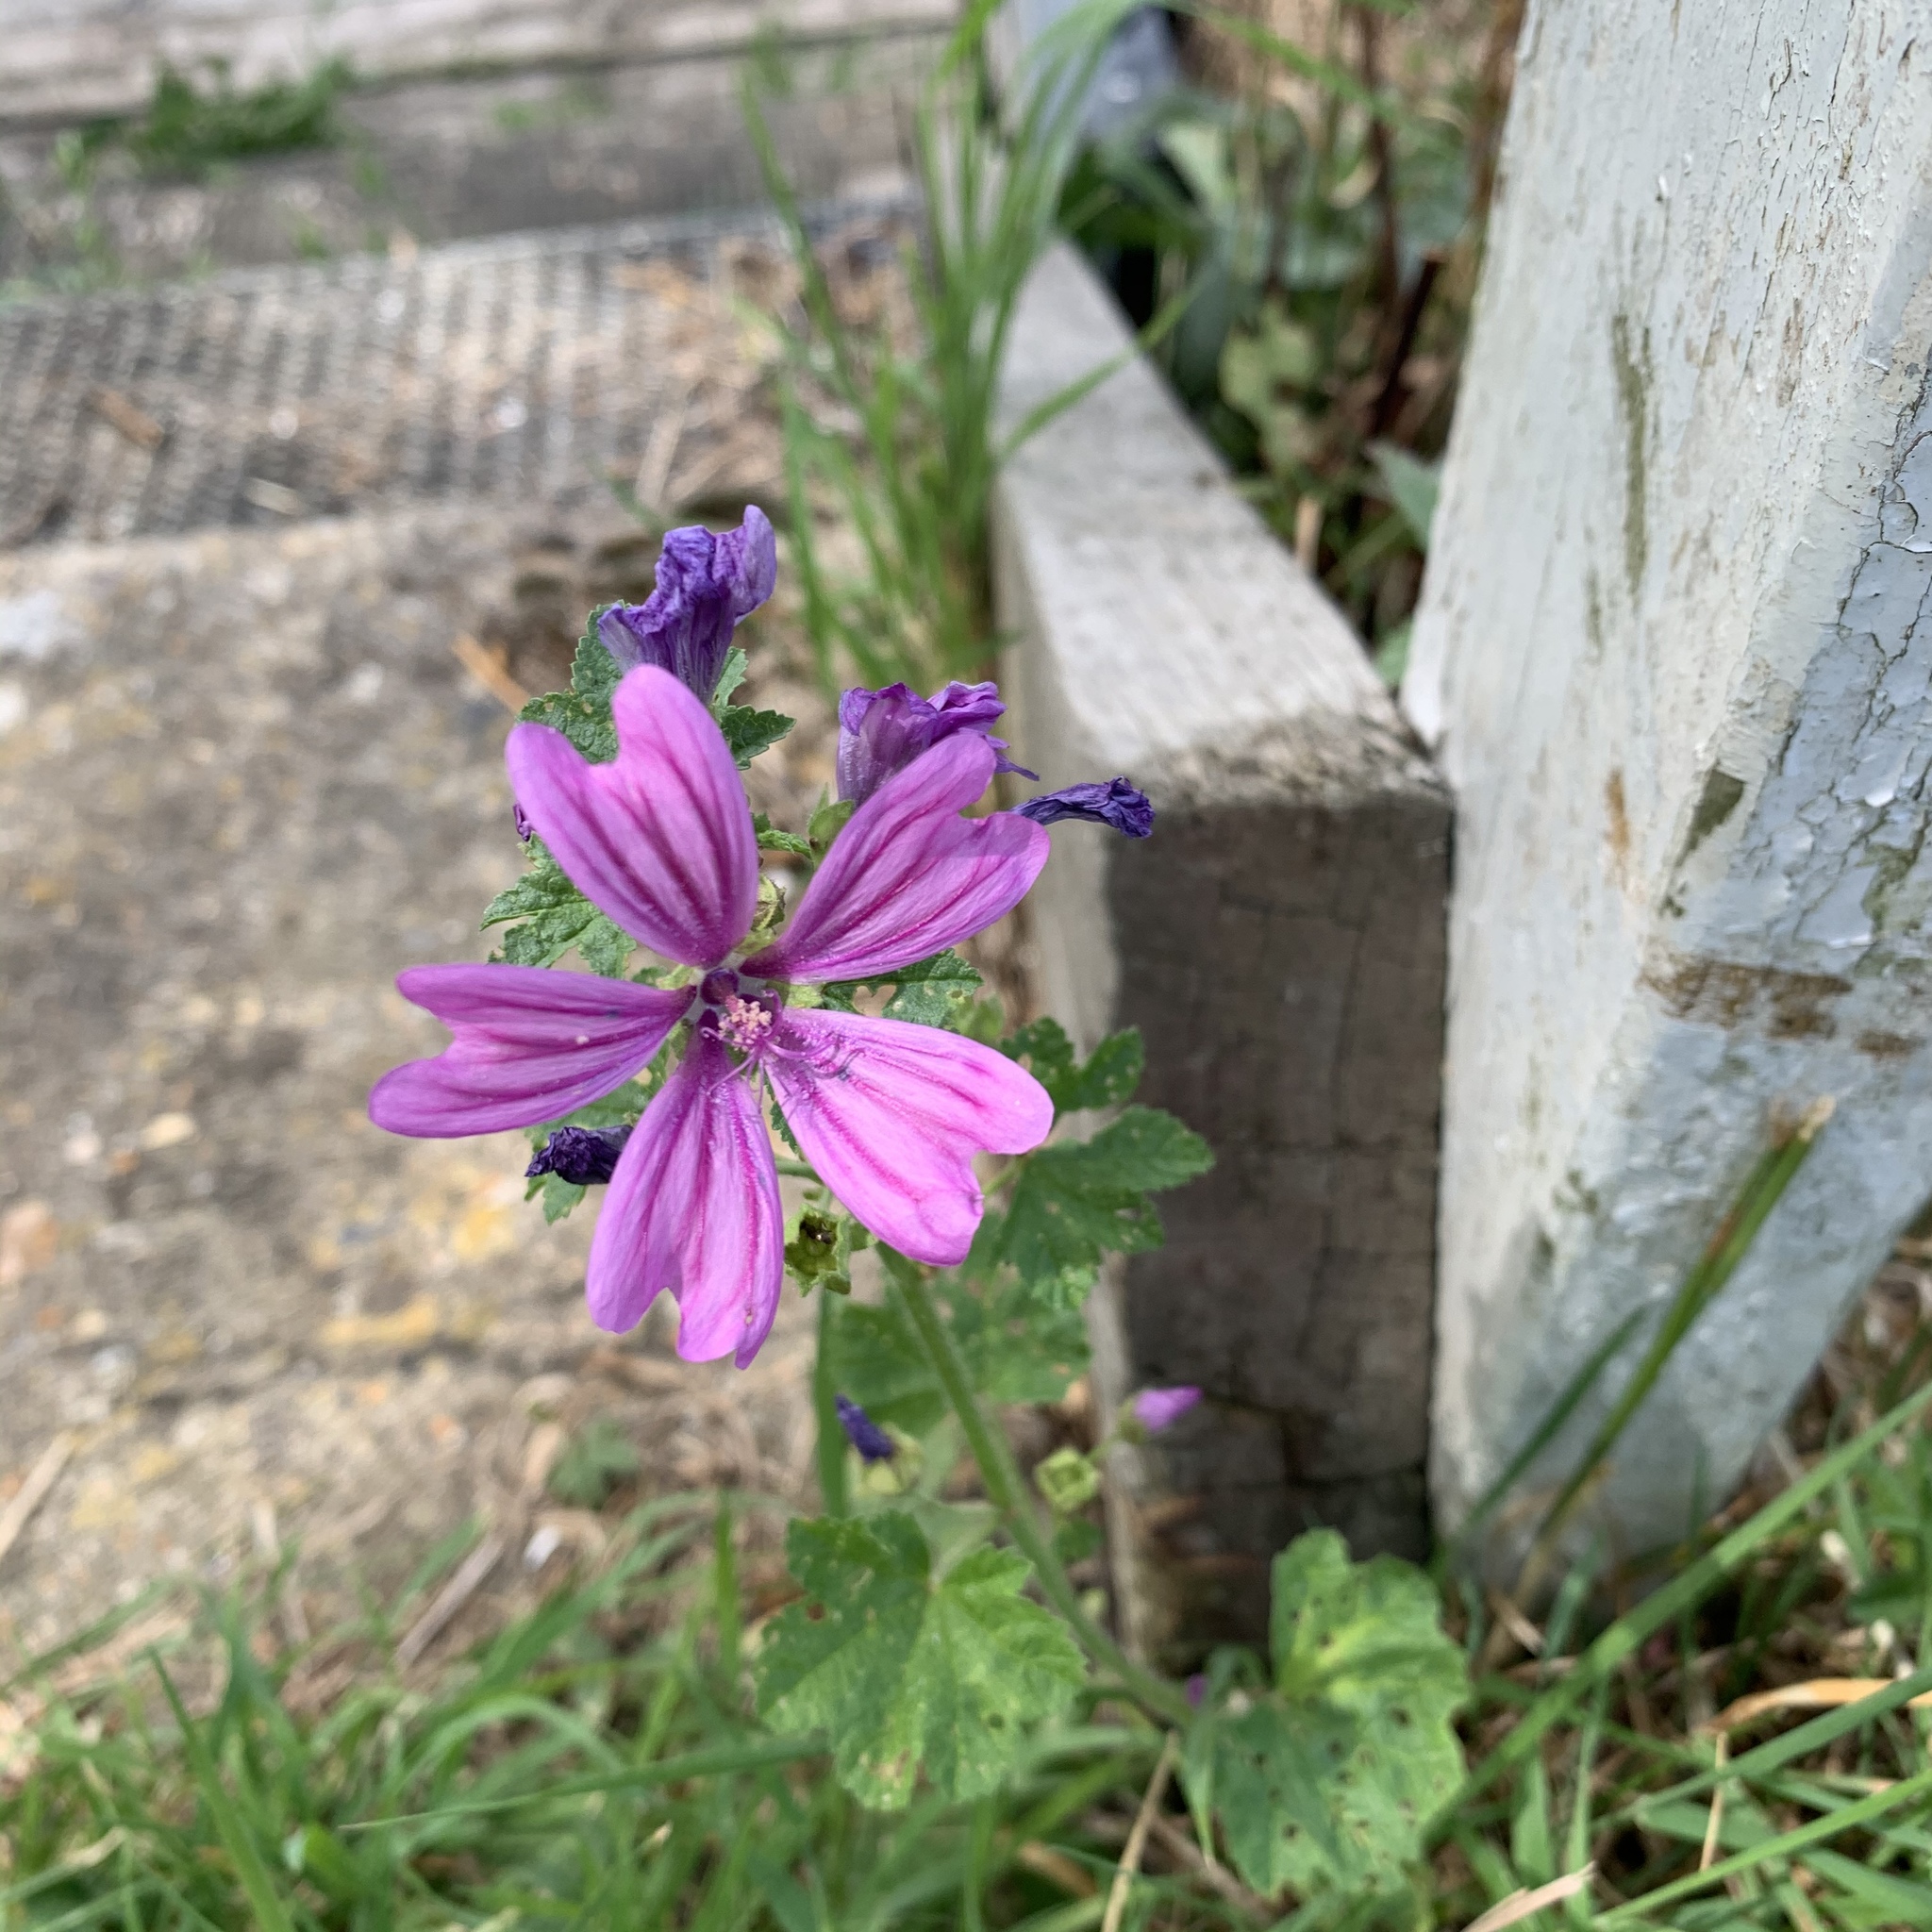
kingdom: Plantae
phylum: Tracheophyta
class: Magnoliopsida
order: Malvales
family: Malvaceae
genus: Malva
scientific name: Malva sylvestris
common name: Common mallow
